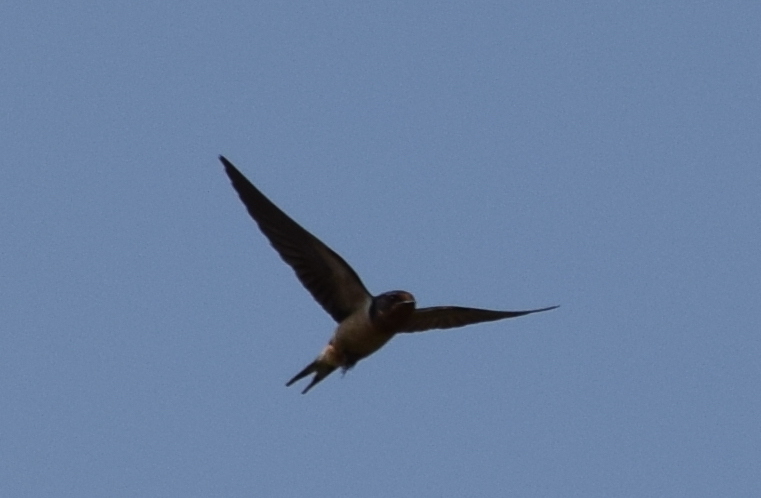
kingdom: Animalia
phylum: Chordata
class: Aves
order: Passeriformes
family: Hirundinidae
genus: Hirundo
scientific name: Hirundo rustica
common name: Barn swallow
